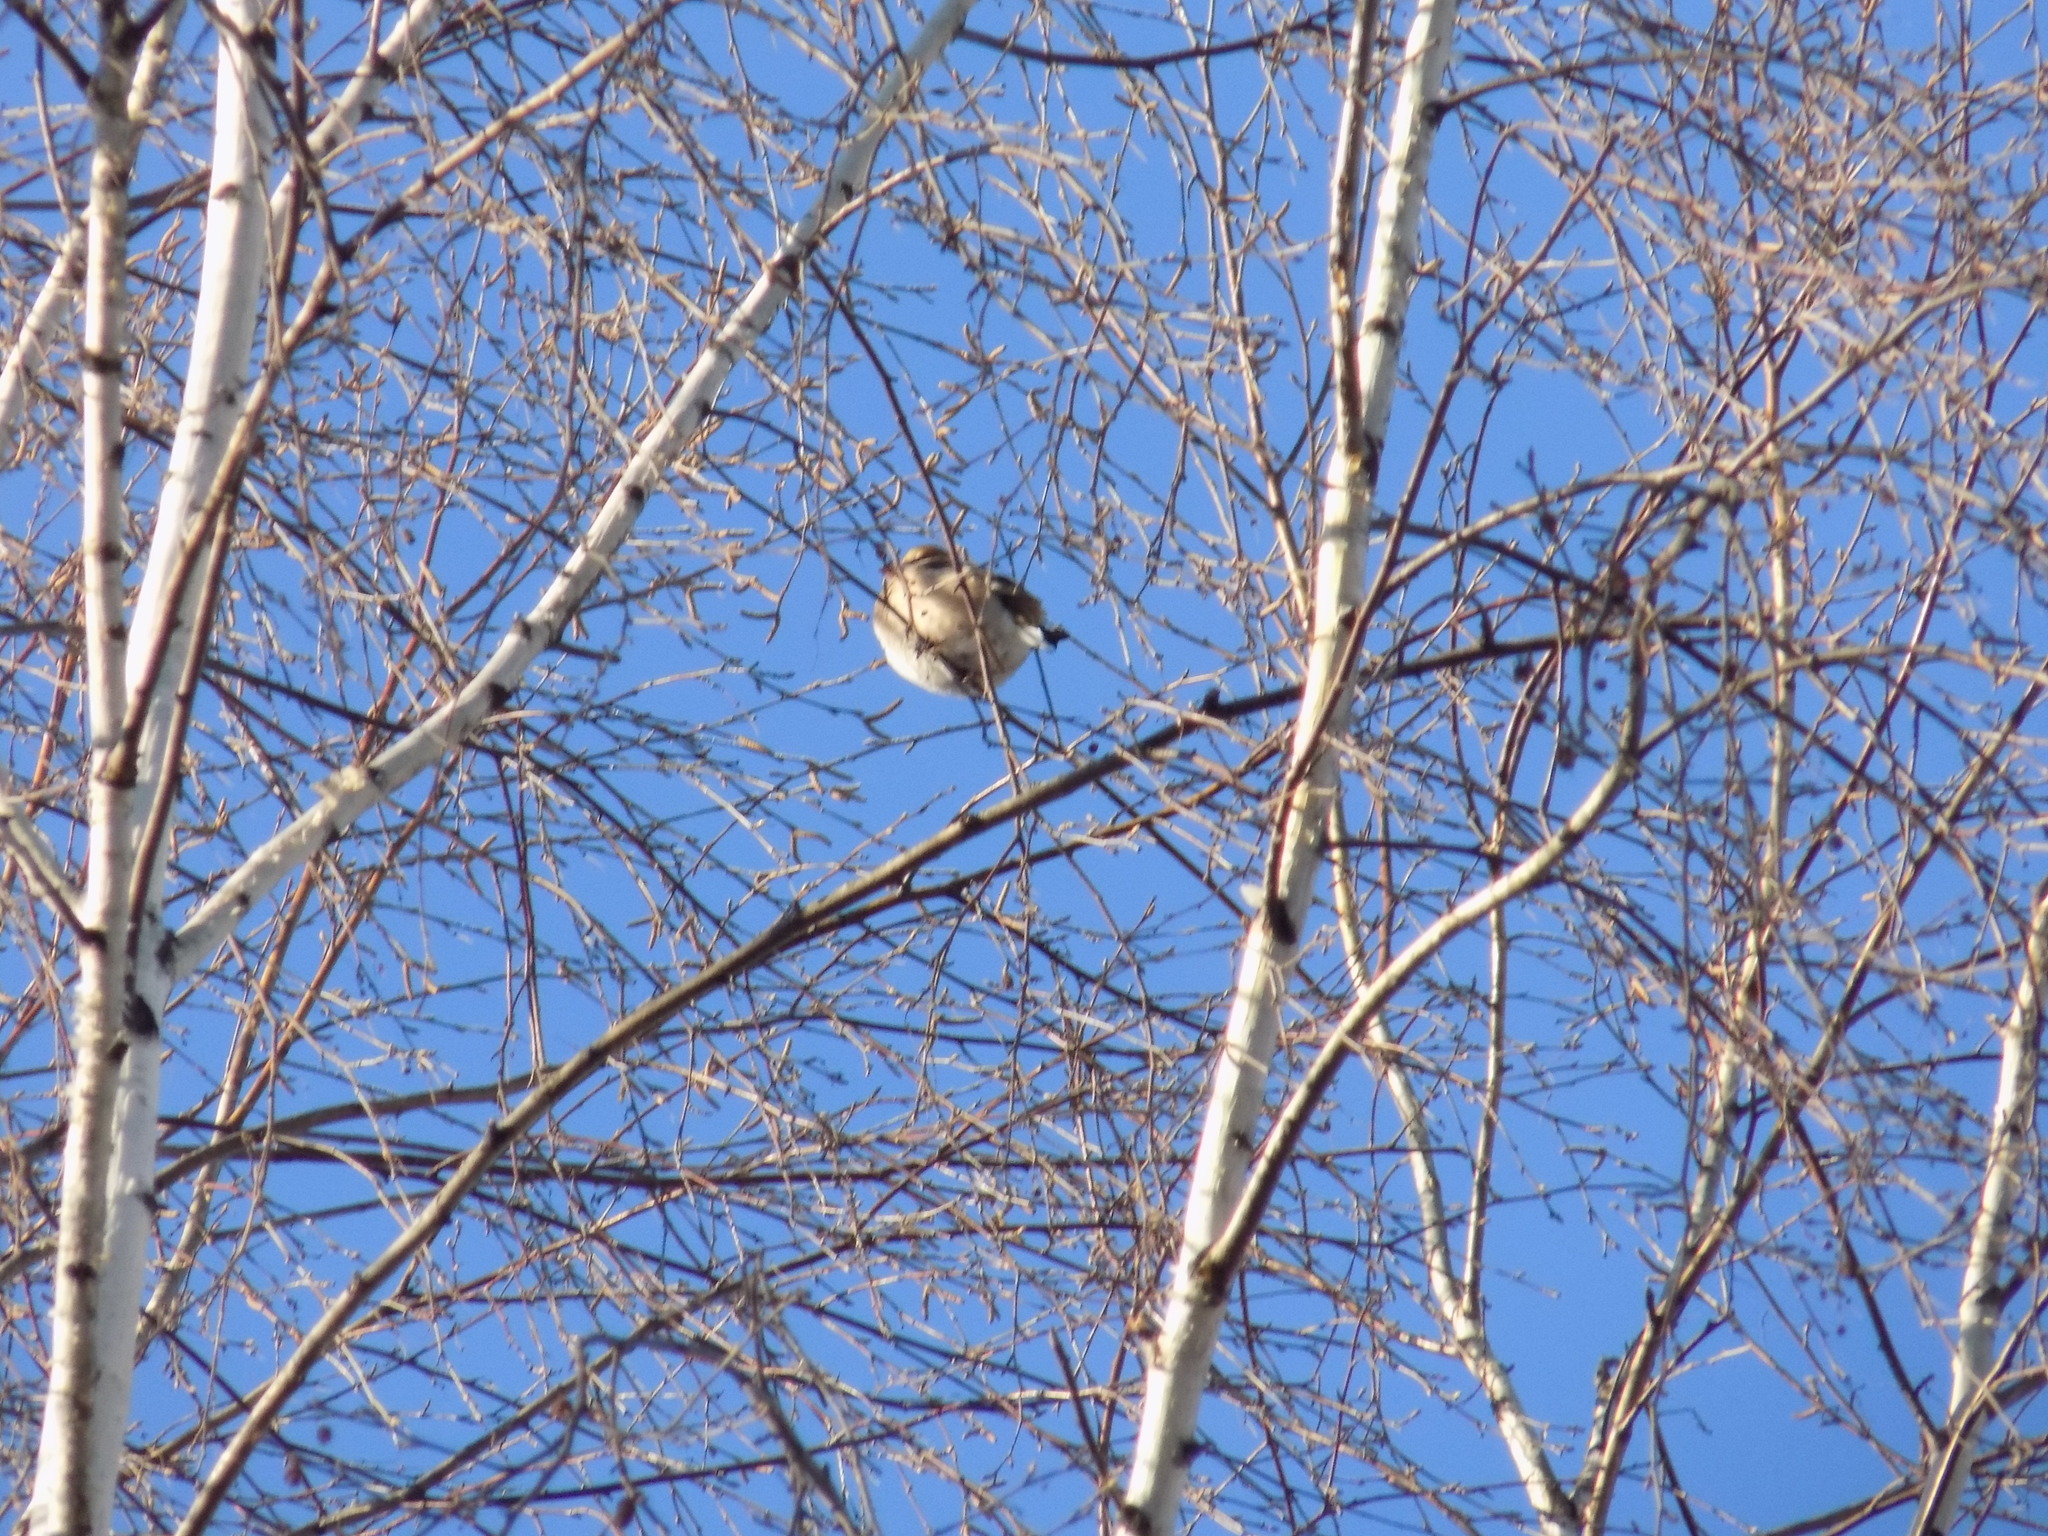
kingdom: Animalia
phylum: Chordata
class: Aves
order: Passeriformes
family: Fringillidae
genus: Coccothraustes
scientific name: Coccothraustes coccothraustes
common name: Hawfinch
